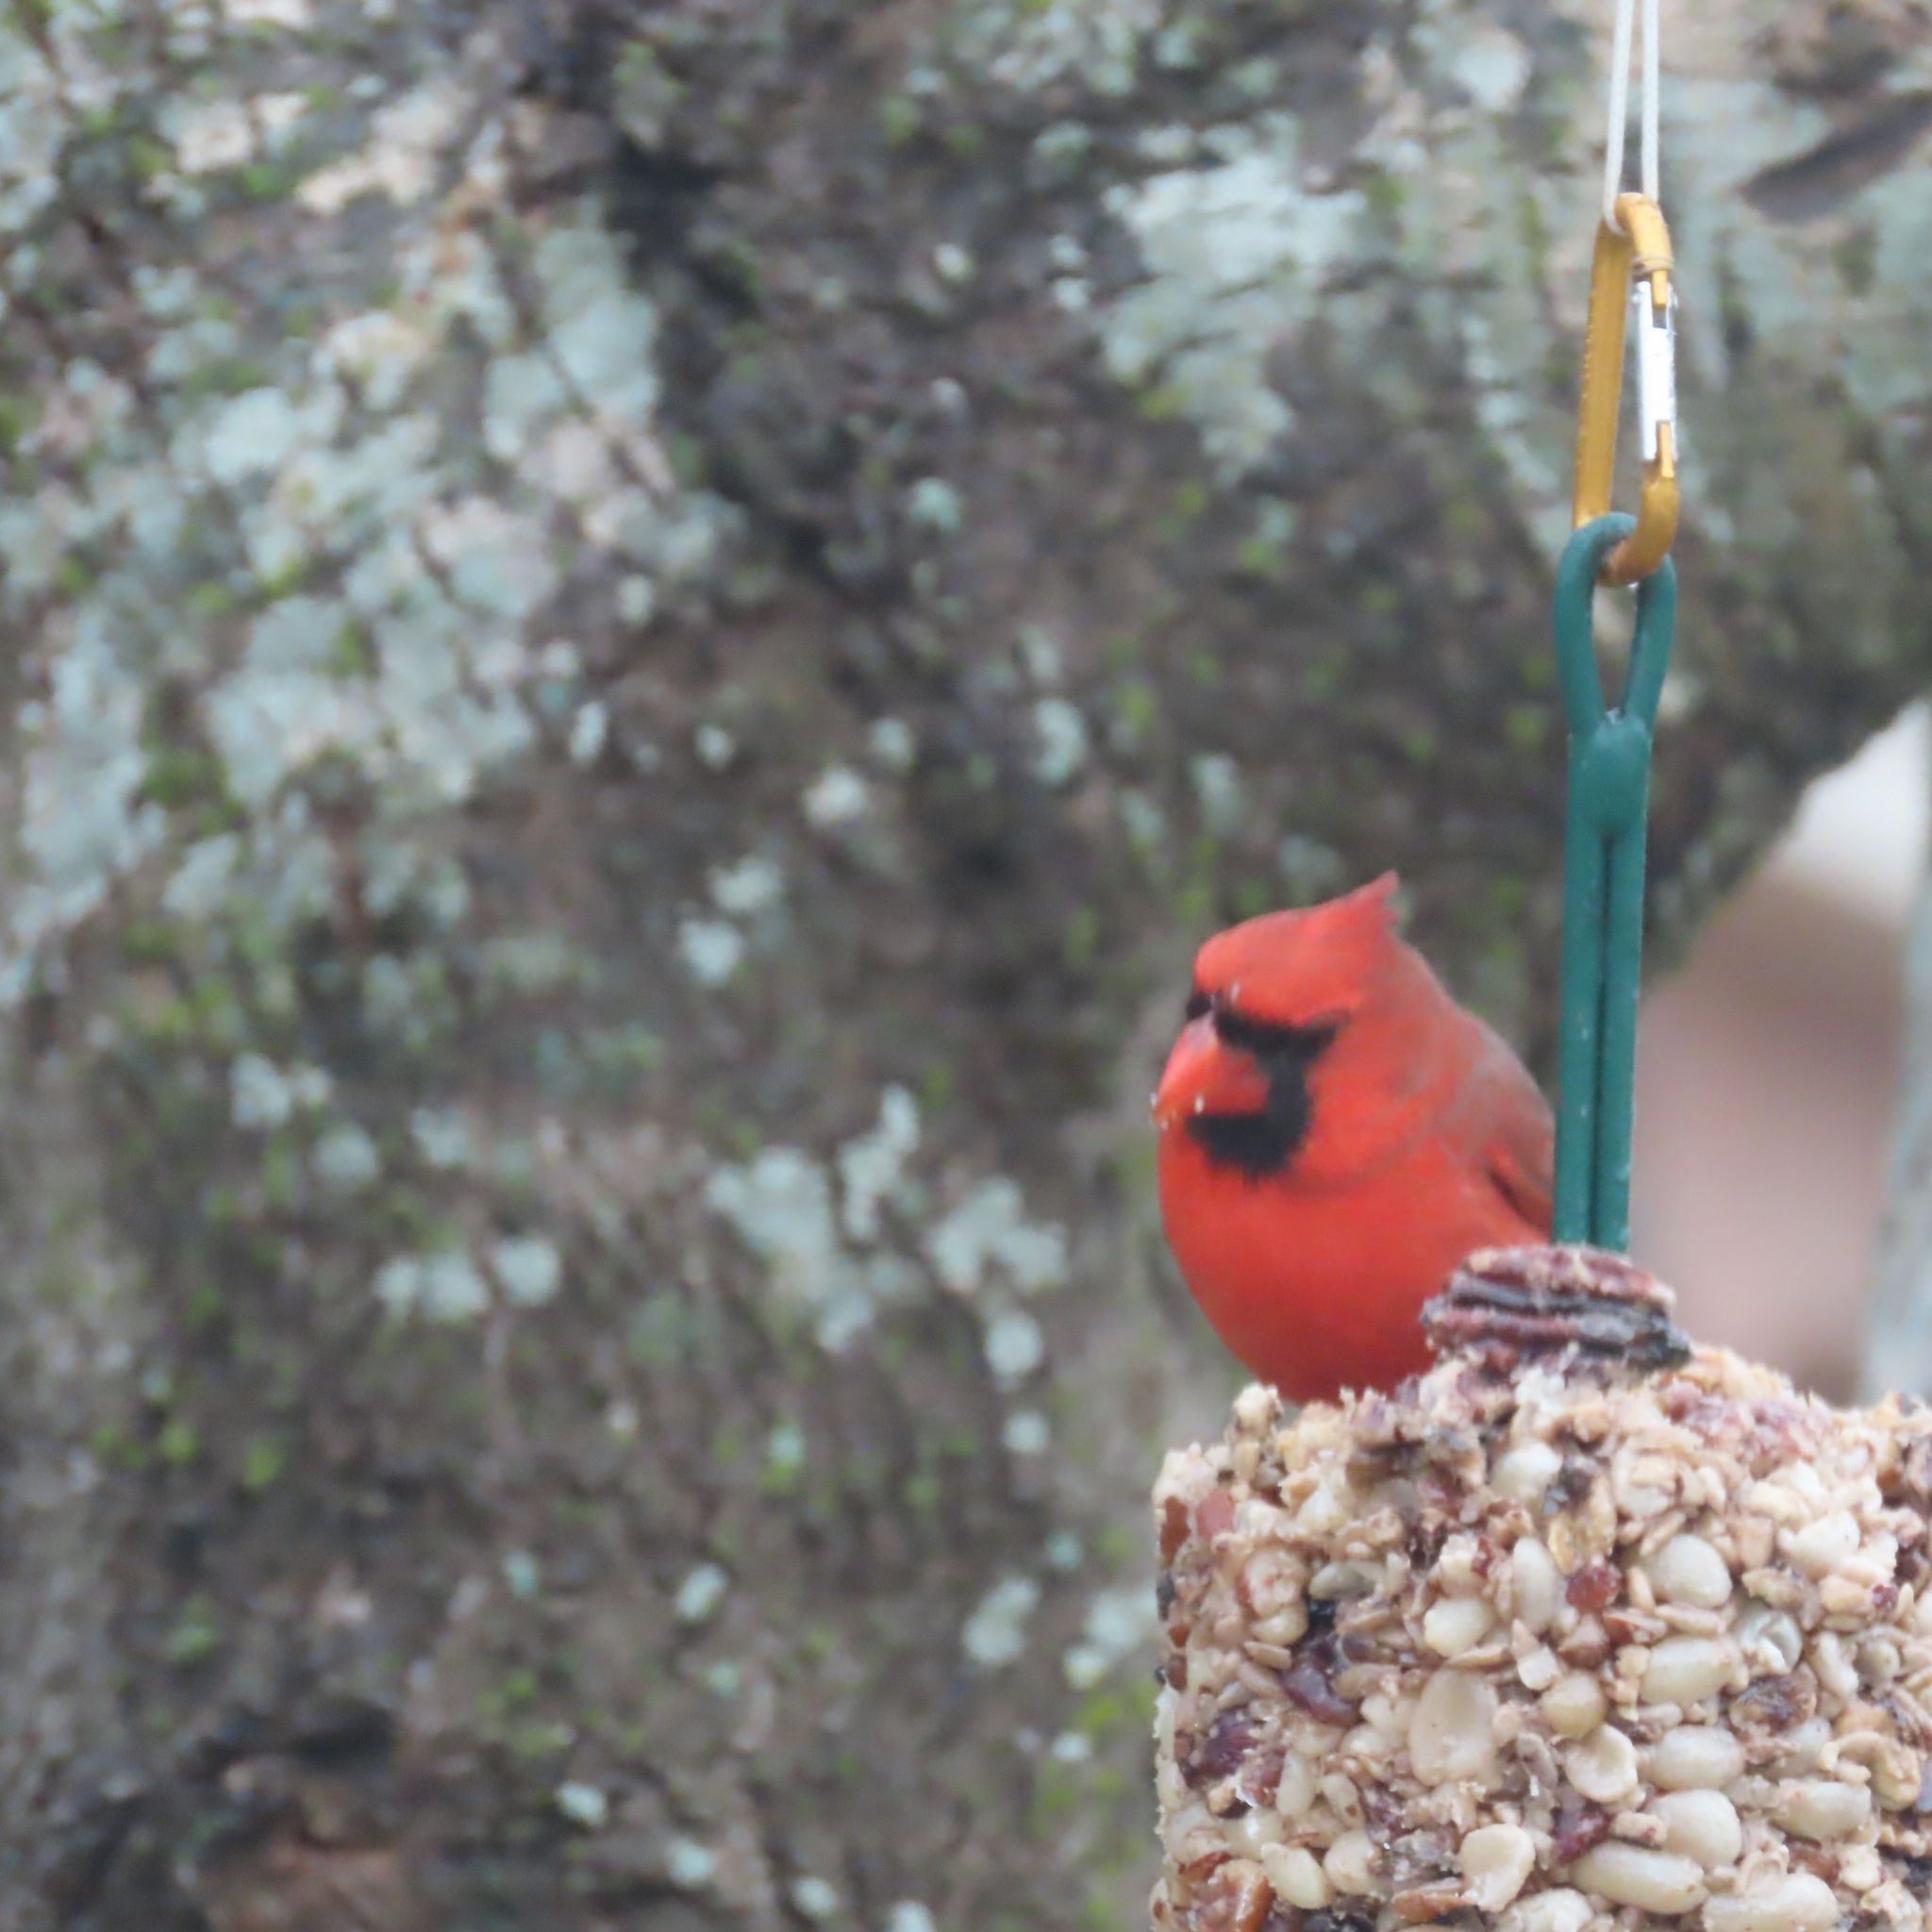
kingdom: Animalia
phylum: Chordata
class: Aves
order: Passeriformes
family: Cardinalidae
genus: Cardinalis
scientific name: Cardinalis cardinalis
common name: Northern cardinal
